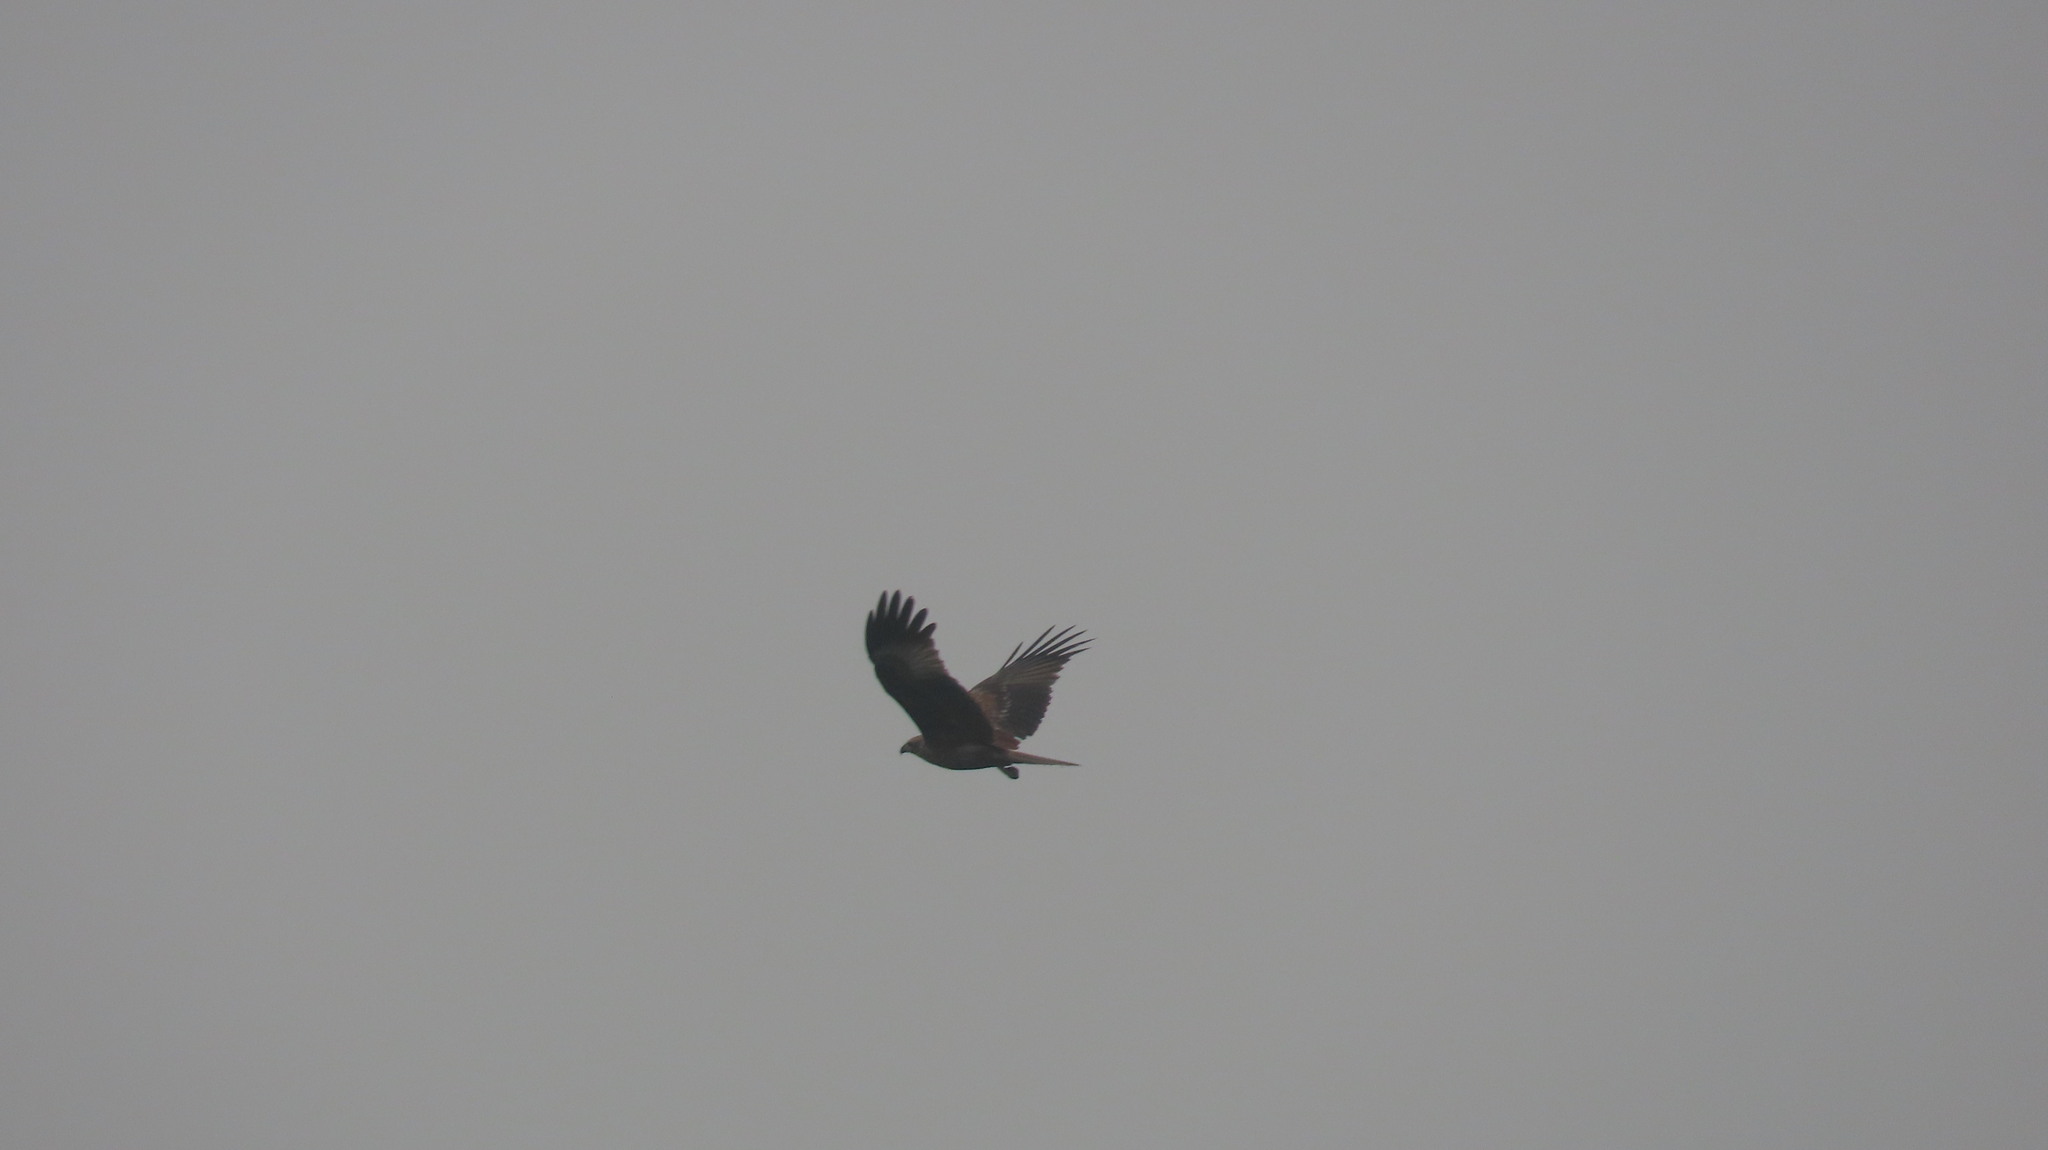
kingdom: Animalia
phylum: Chordata
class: Aves
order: Accipitriformes
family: Accipitridae
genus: Haliastur
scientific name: Haliastur indus
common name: Brahminy kite
